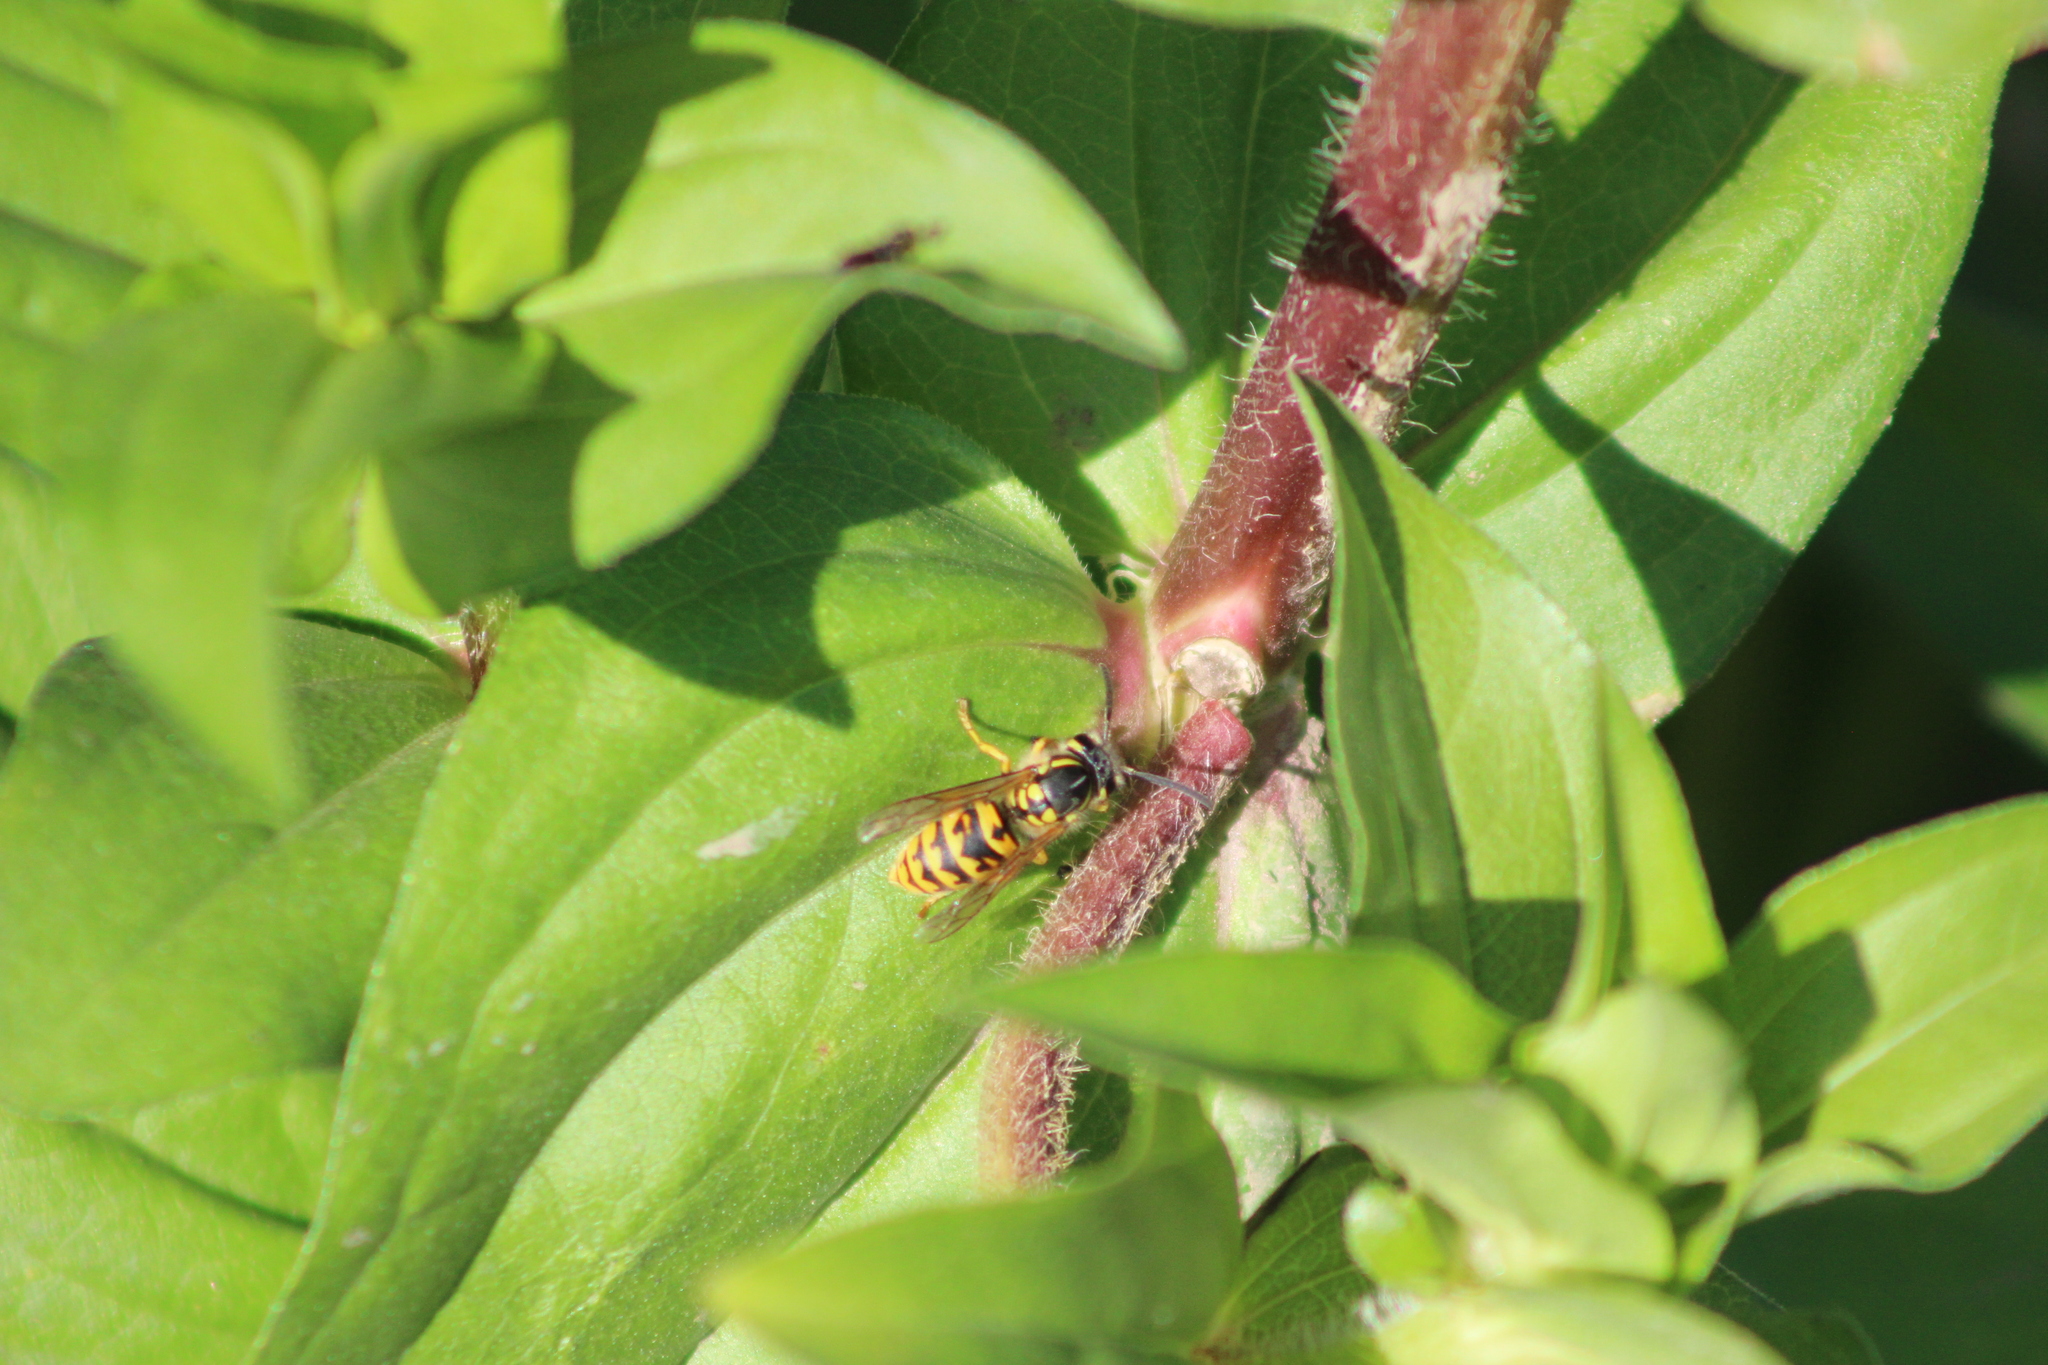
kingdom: Animalia
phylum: Arthropoda
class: Insecta
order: Hymenoptera
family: Vespidae
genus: Vespula
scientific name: Vespula germanica
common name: German wasp
